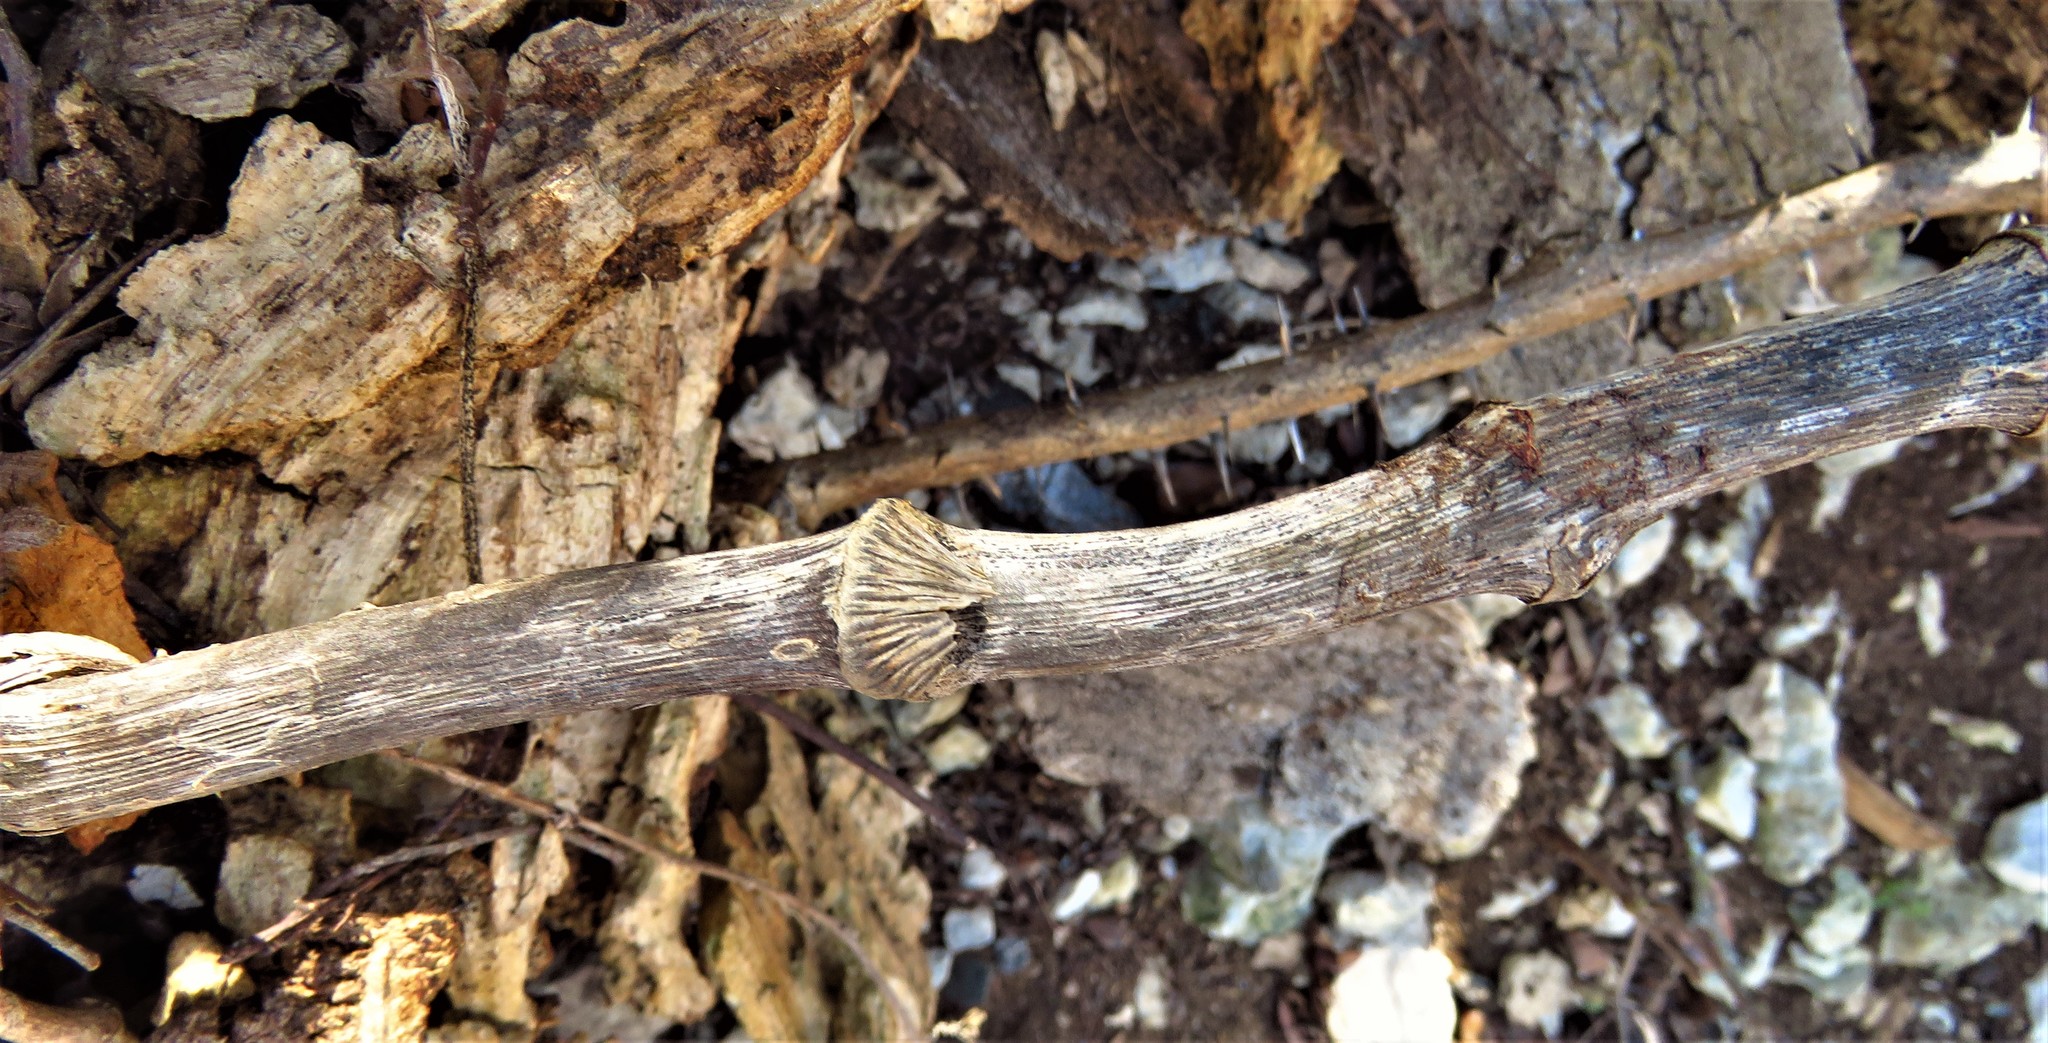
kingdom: Plantae
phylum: Tracheophyta
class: Liliopsida
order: Liliales
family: Smilacaceae
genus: Smilax
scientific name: Smilax tamnoides
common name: Hellfetter
